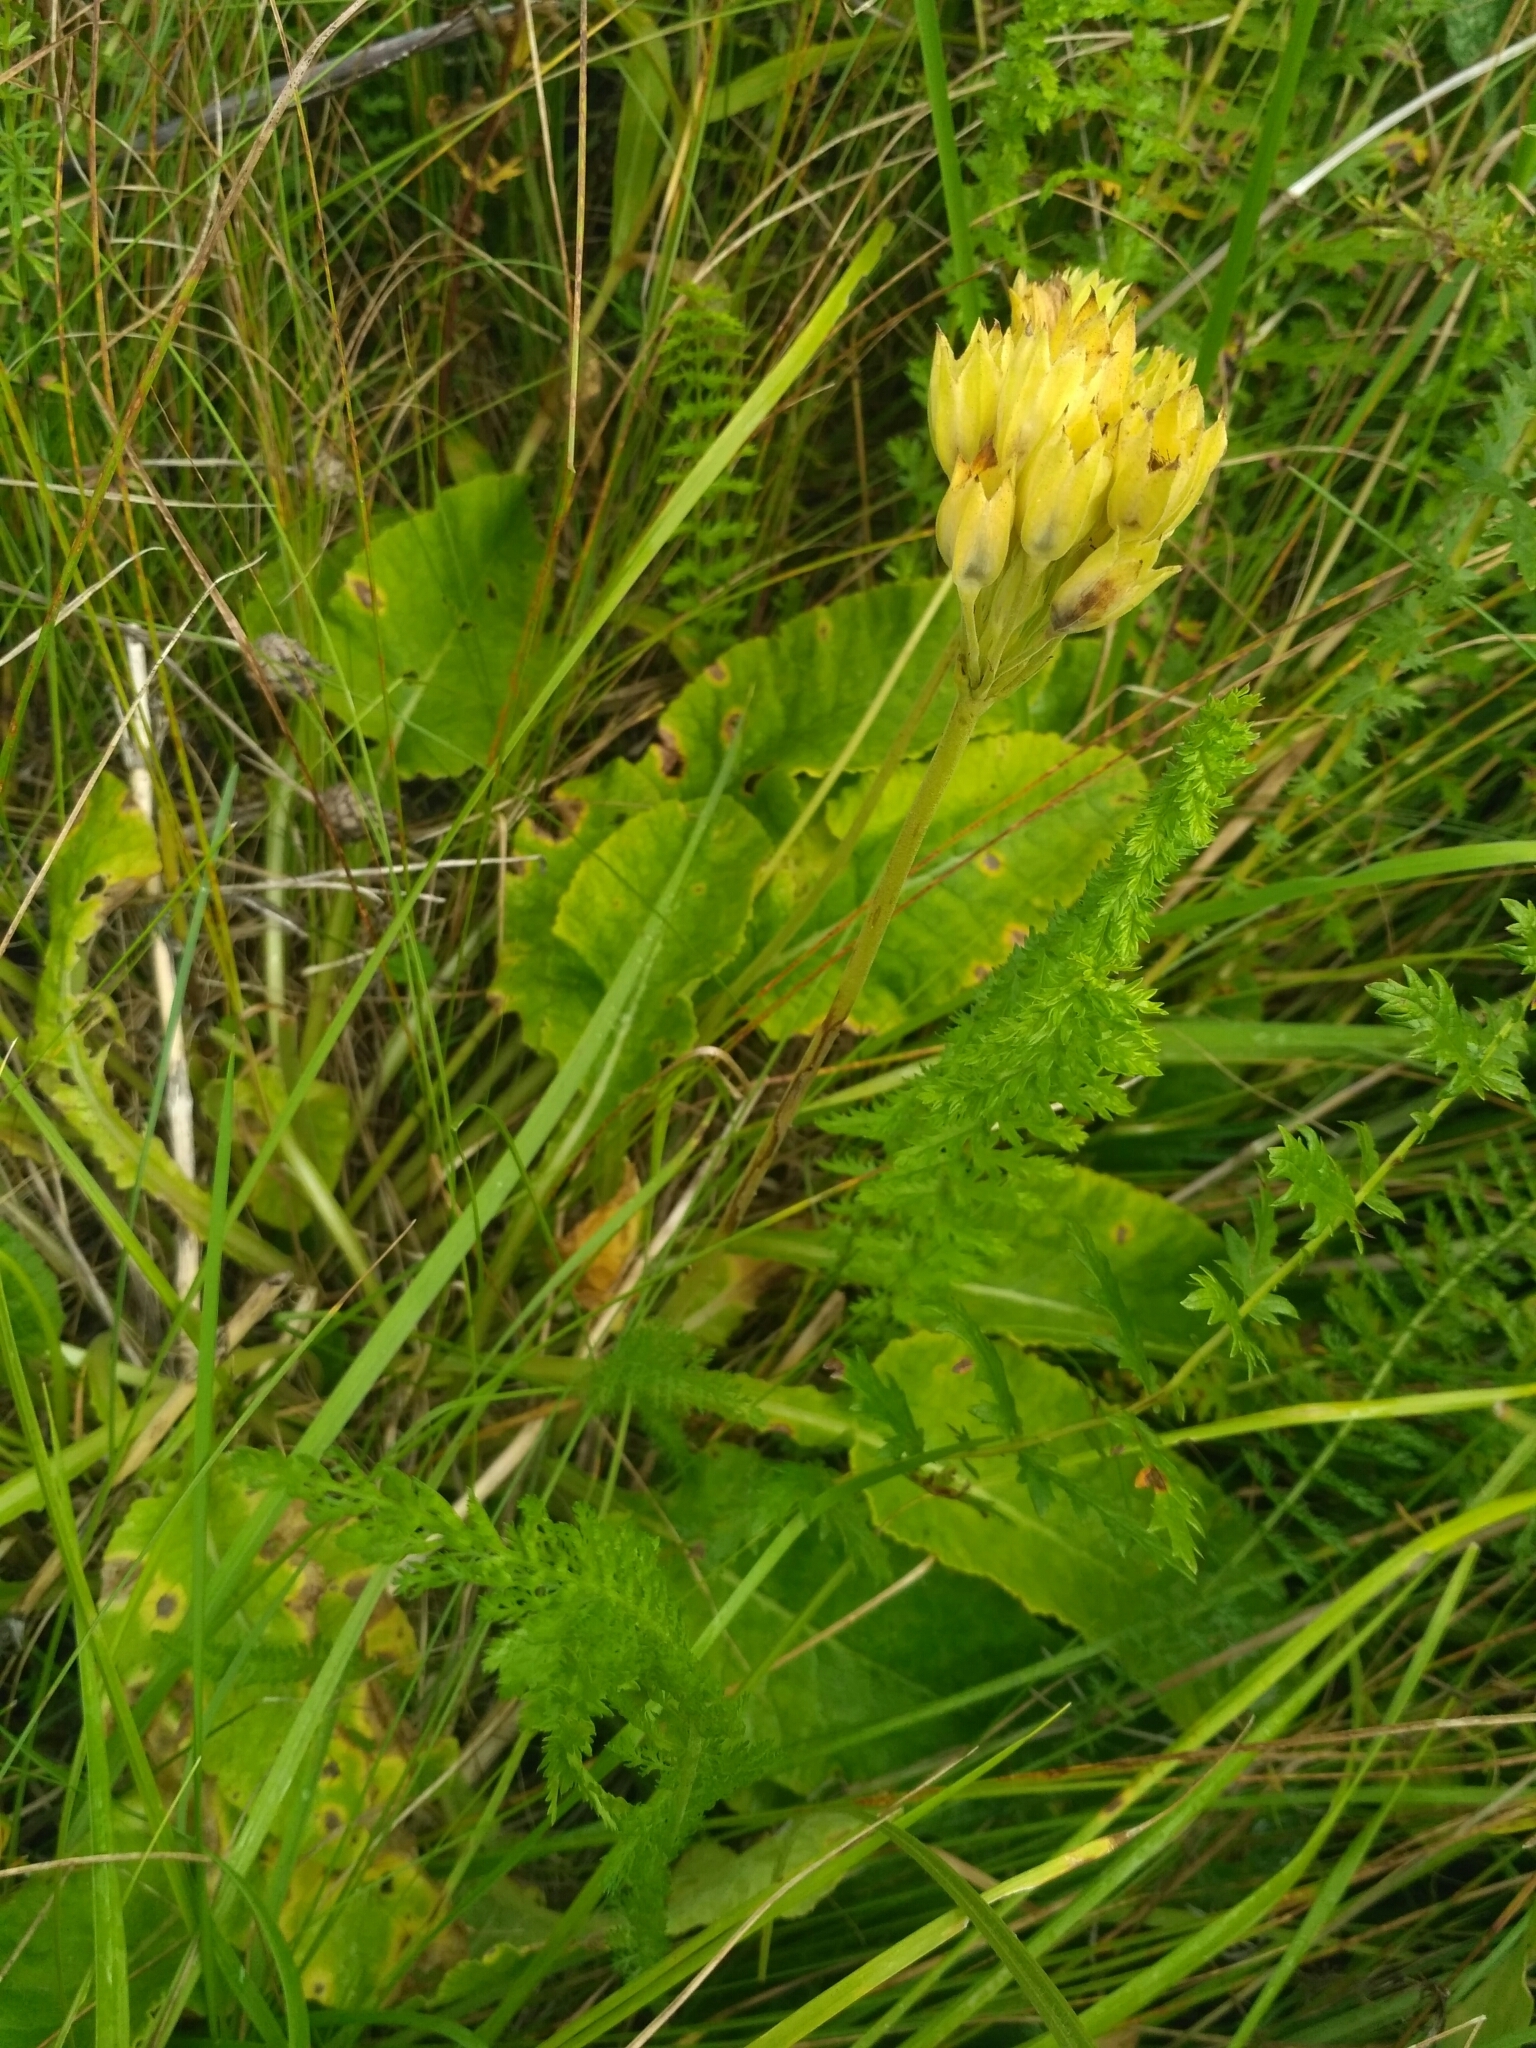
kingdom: Plantae
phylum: Tracheophyta
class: Magnoliopsida
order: Ericales
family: Primulaceae
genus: Primula
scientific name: Primula veris
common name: Cowslip
